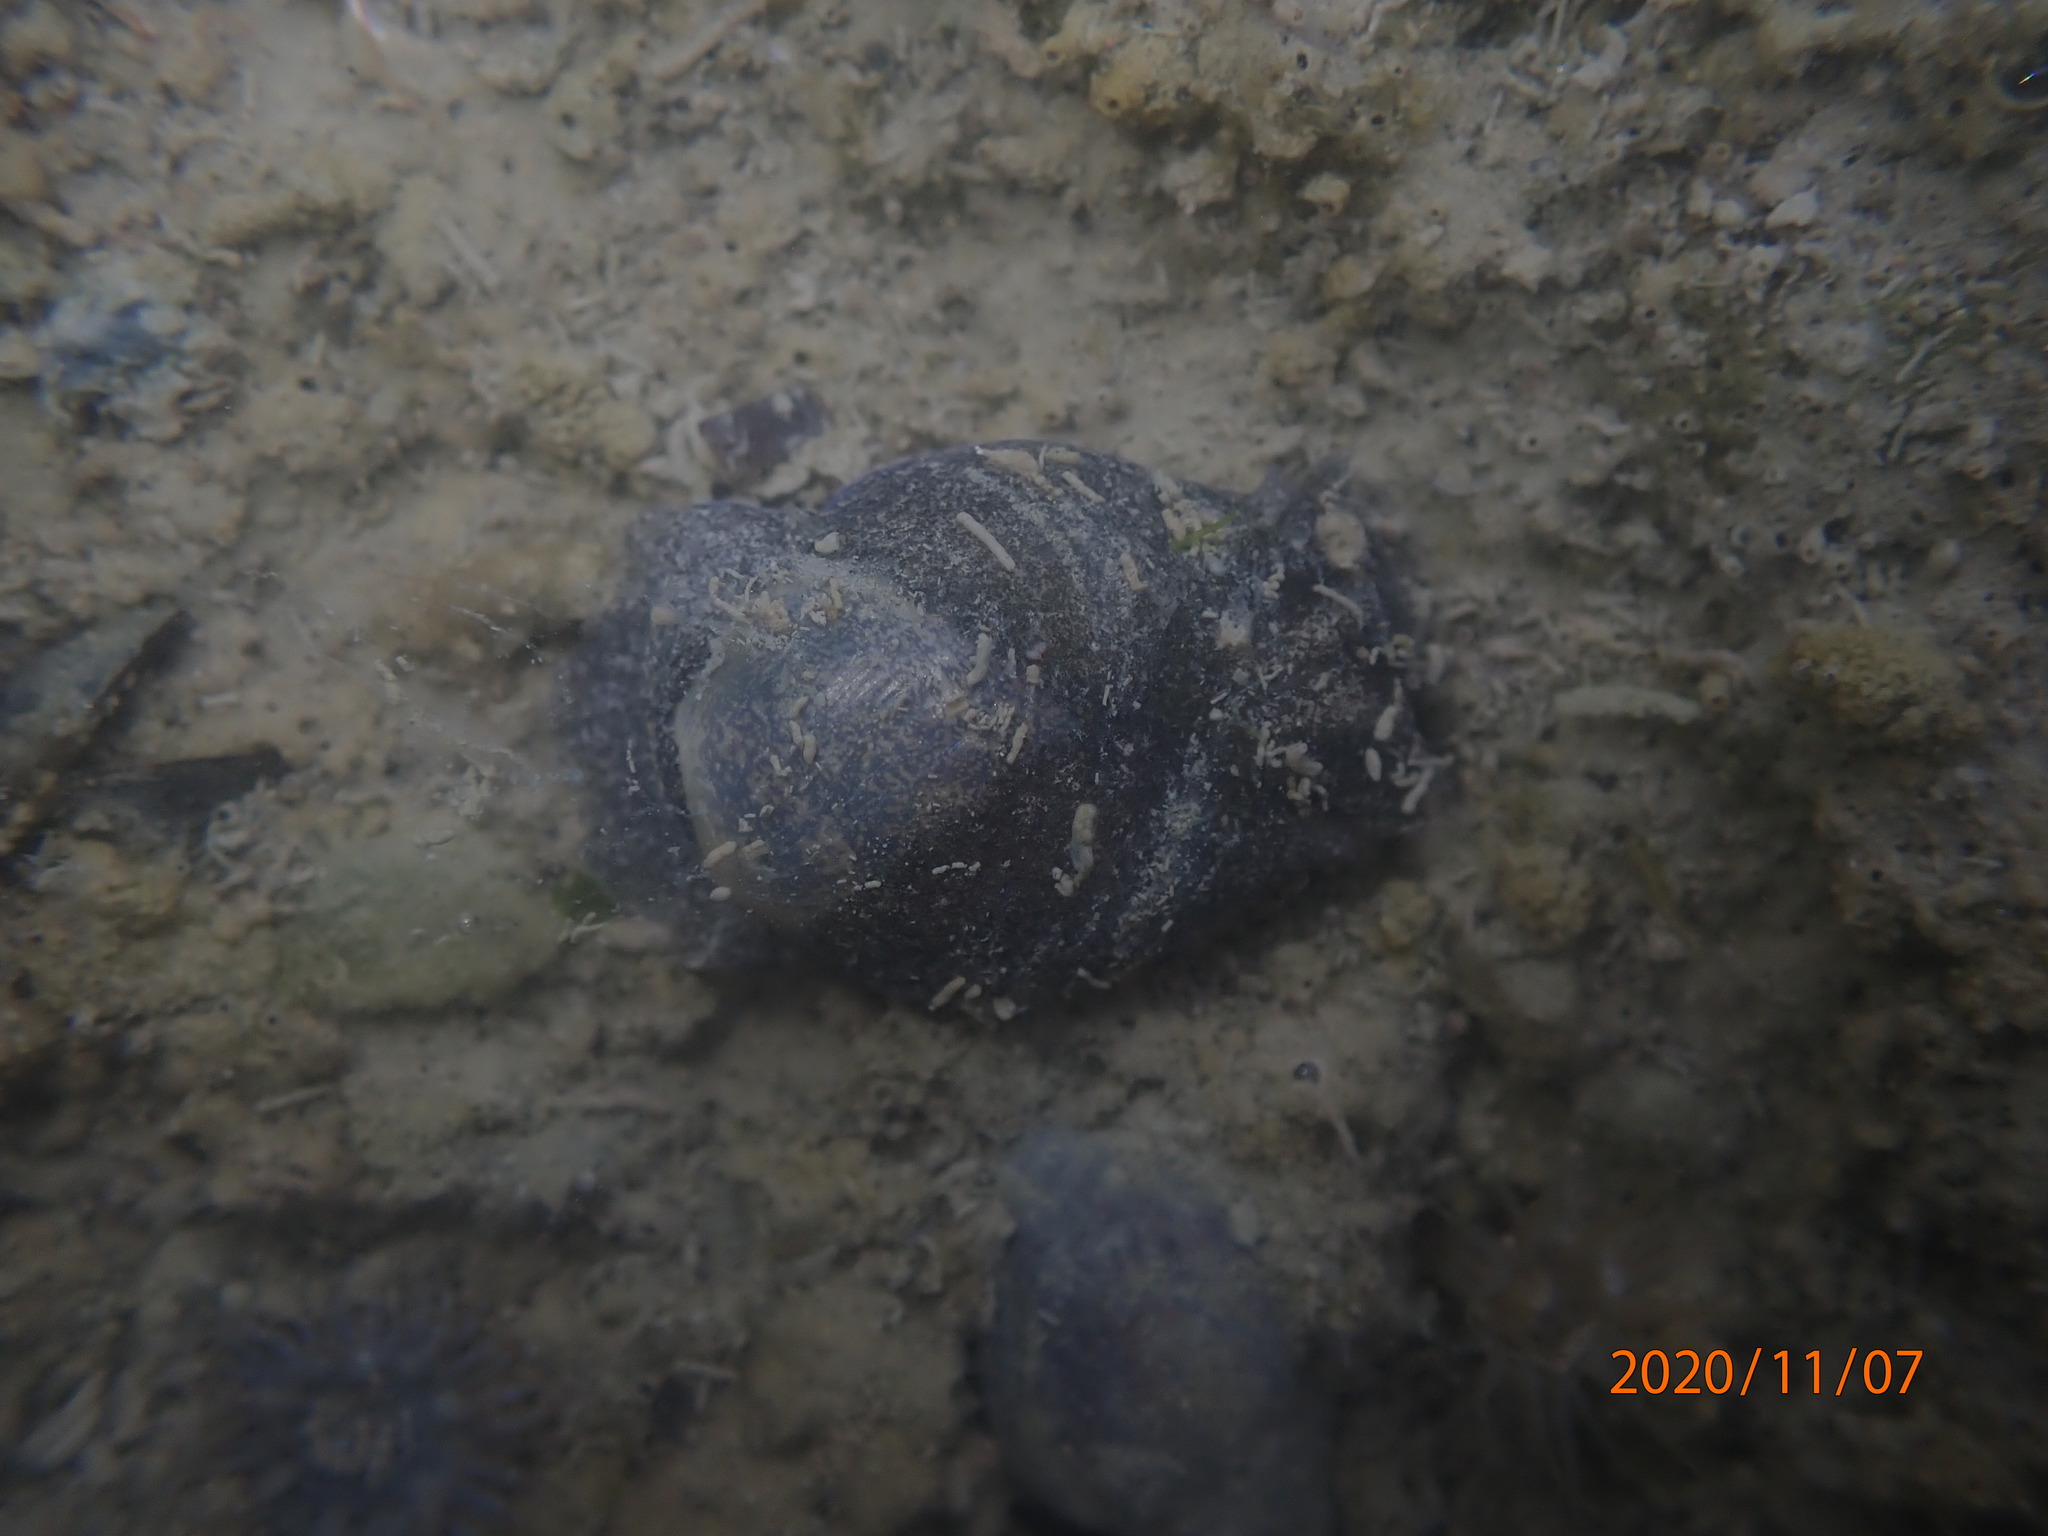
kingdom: Animalia
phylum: Mollusca
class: Gastropoda
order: Cephalaspidea
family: Haminoeidae
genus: Papawera
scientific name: Papawera zelandiae
